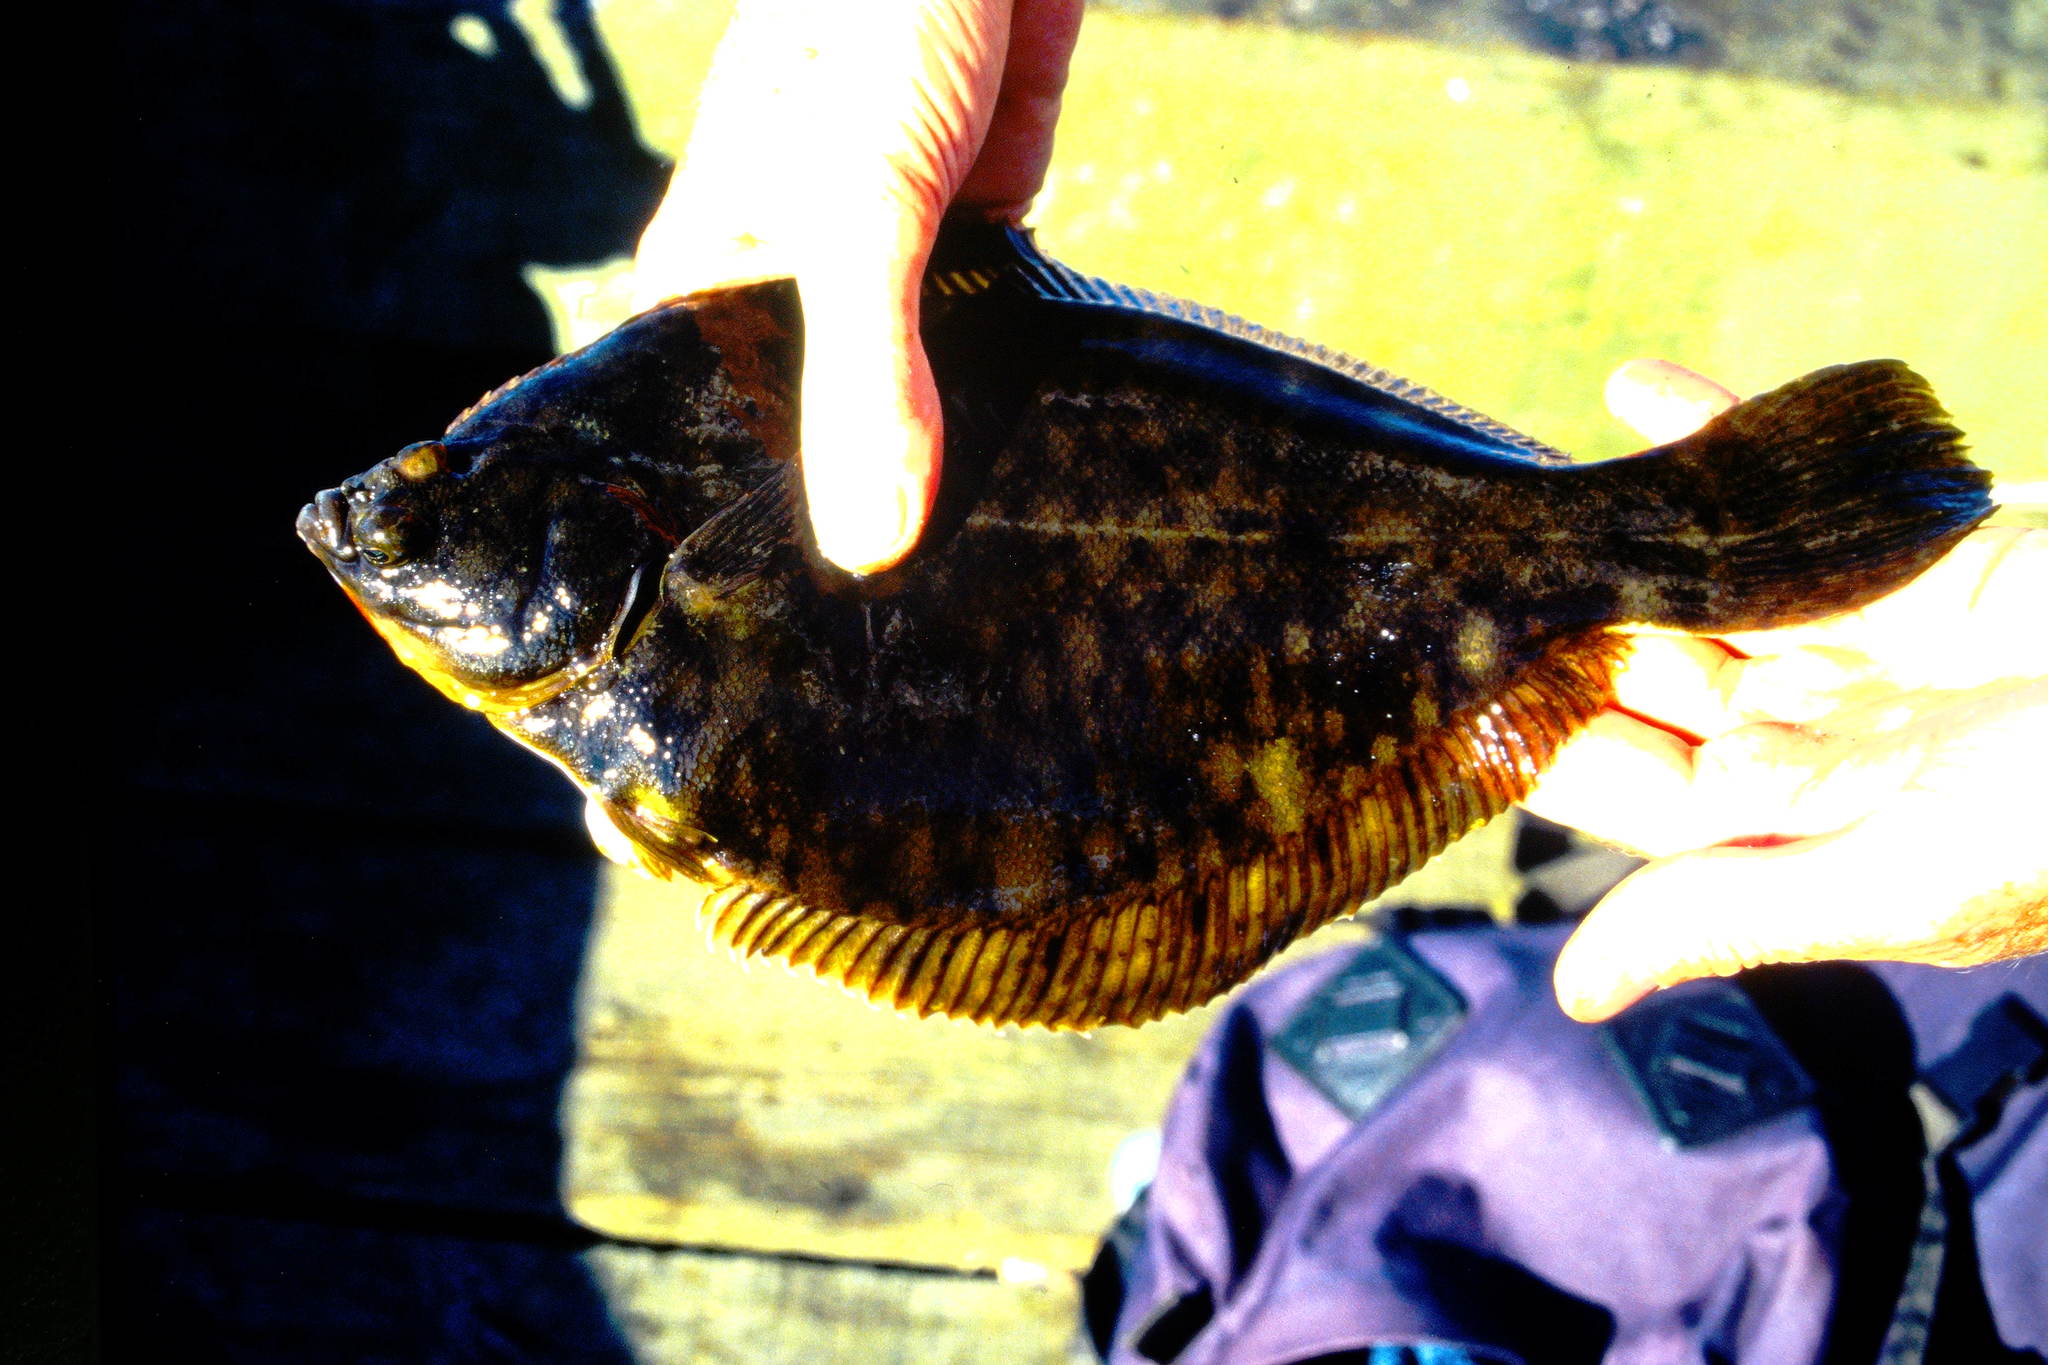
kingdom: Animalia
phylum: Chordata
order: Pleuronectiformes
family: Pleuronectidae
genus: Pseudopleuronectes
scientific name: Pseudopleuronectes americanus
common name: Black backs
